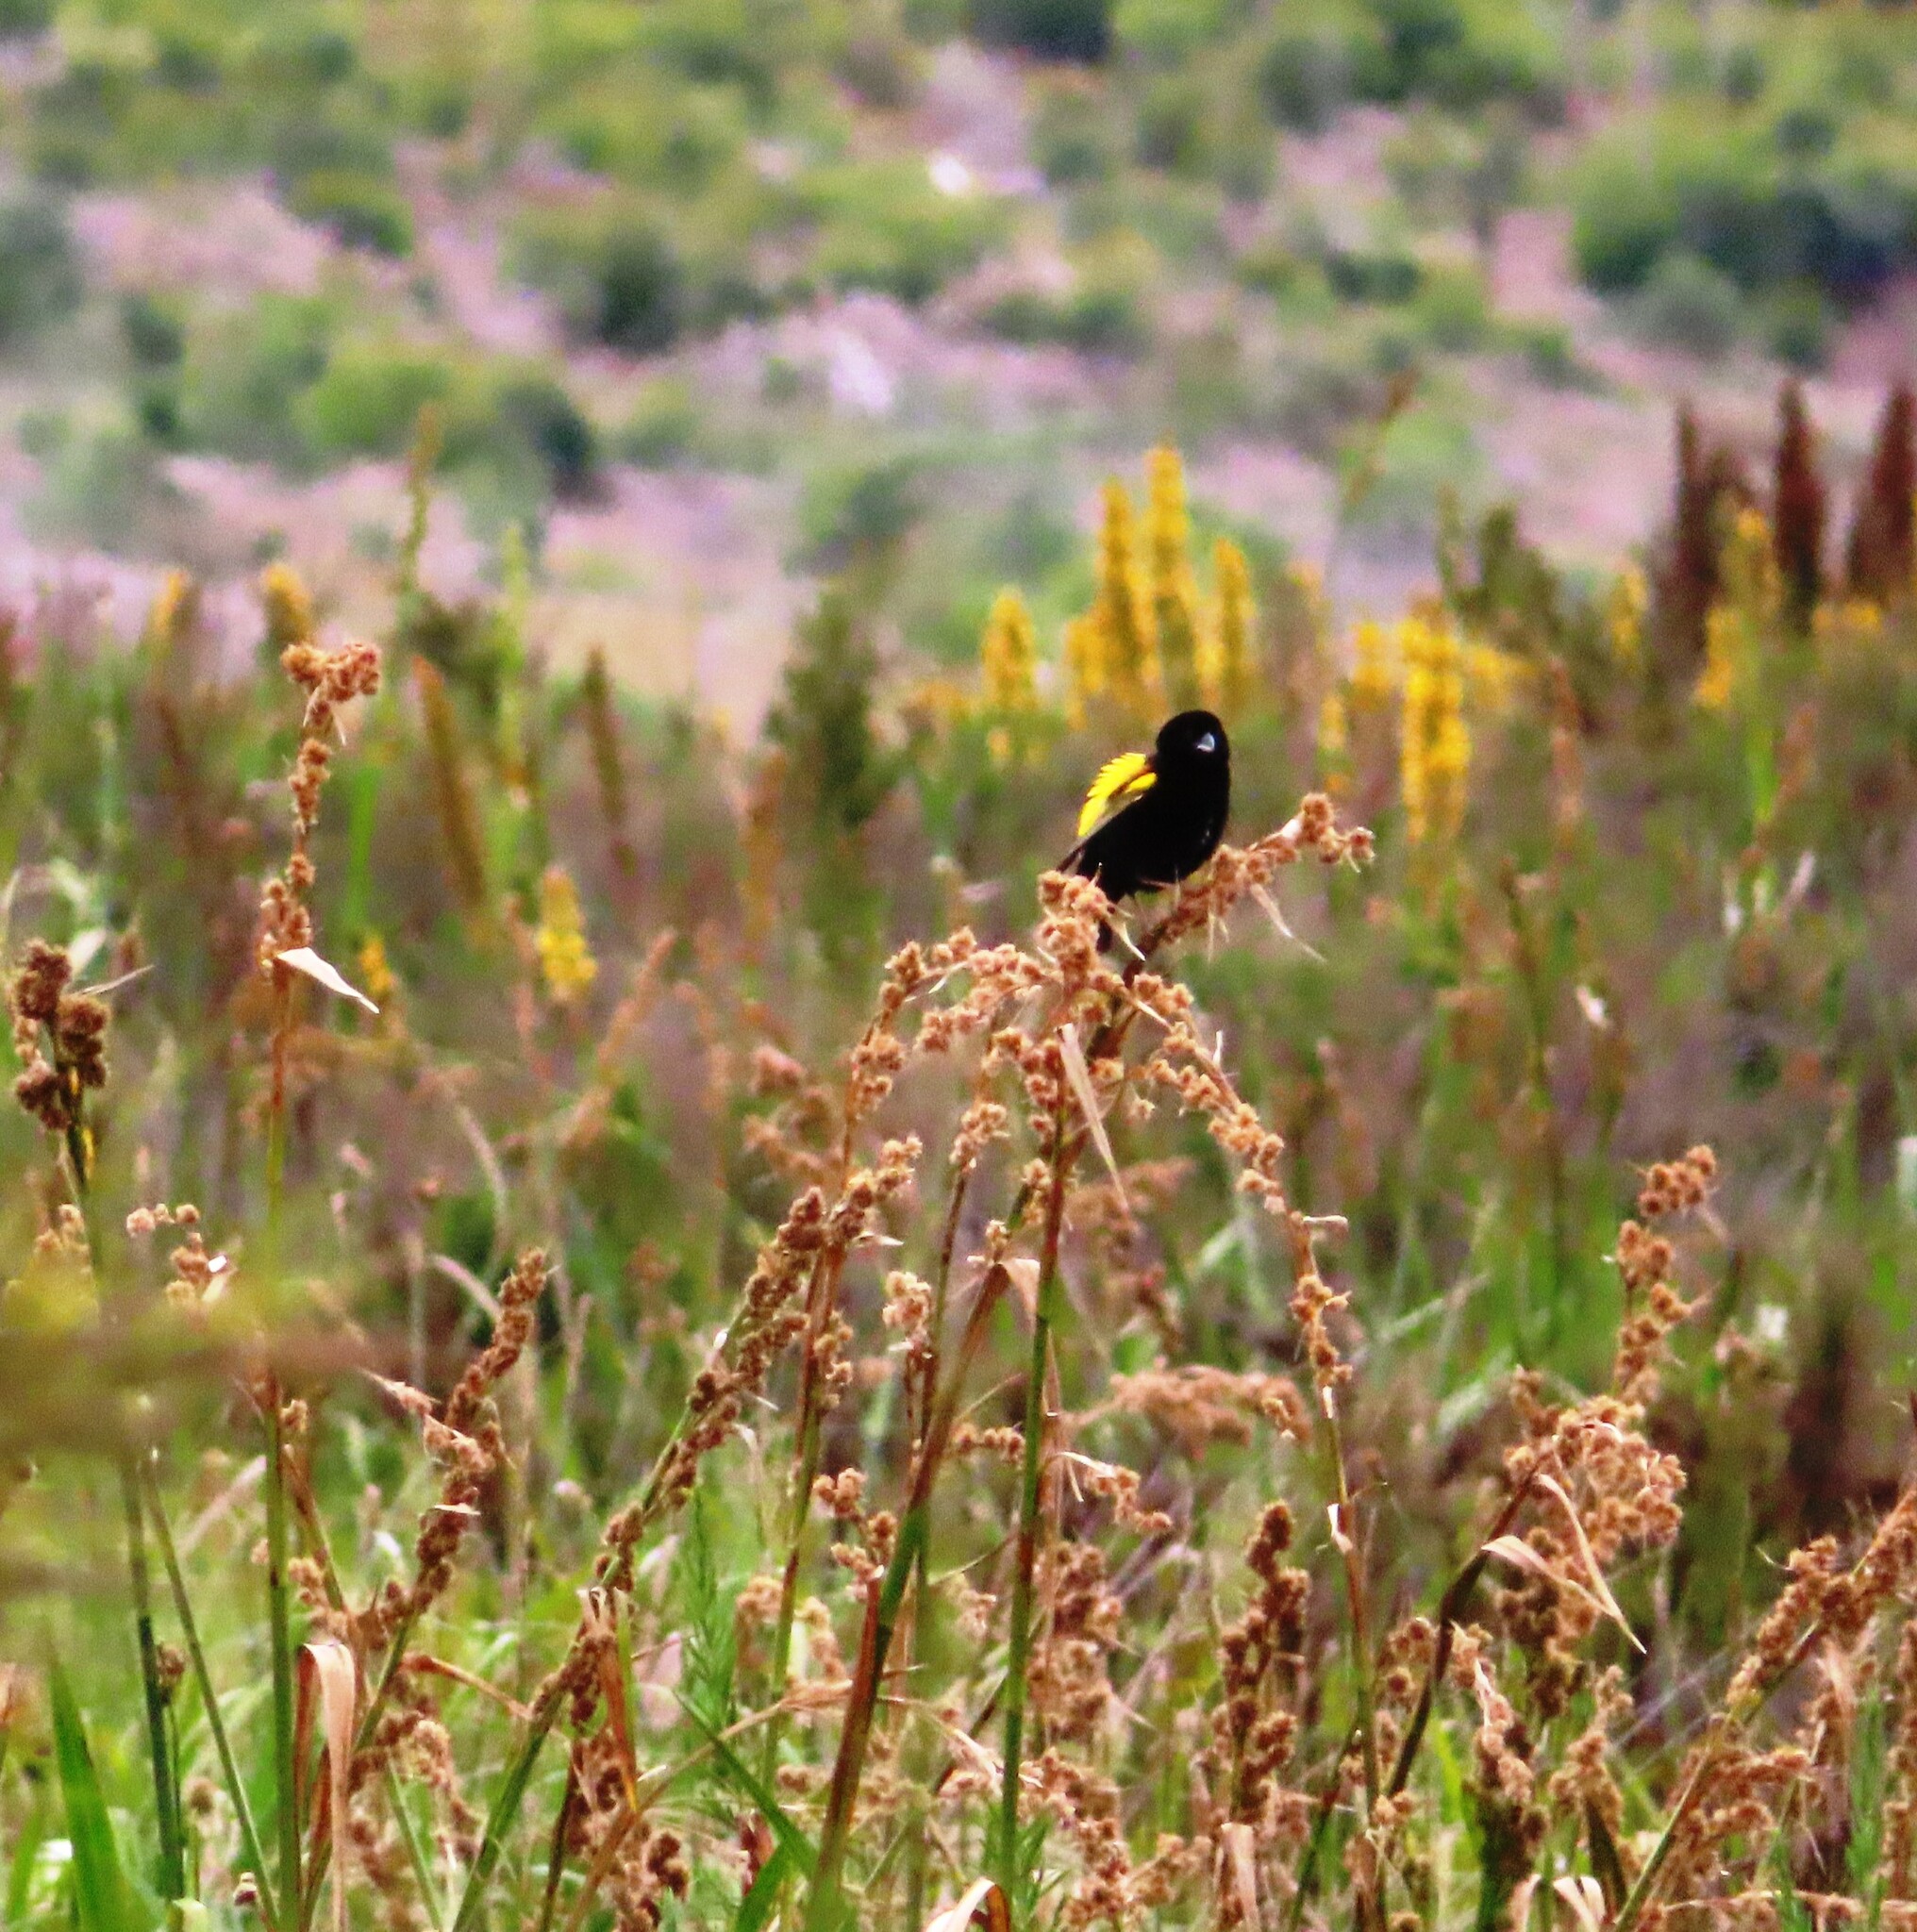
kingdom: Animalia
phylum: Chordata
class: Aves
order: Passeriformes
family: Ploceidae
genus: Euplectes
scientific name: Euplectes capensis
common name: Yellow bishop
